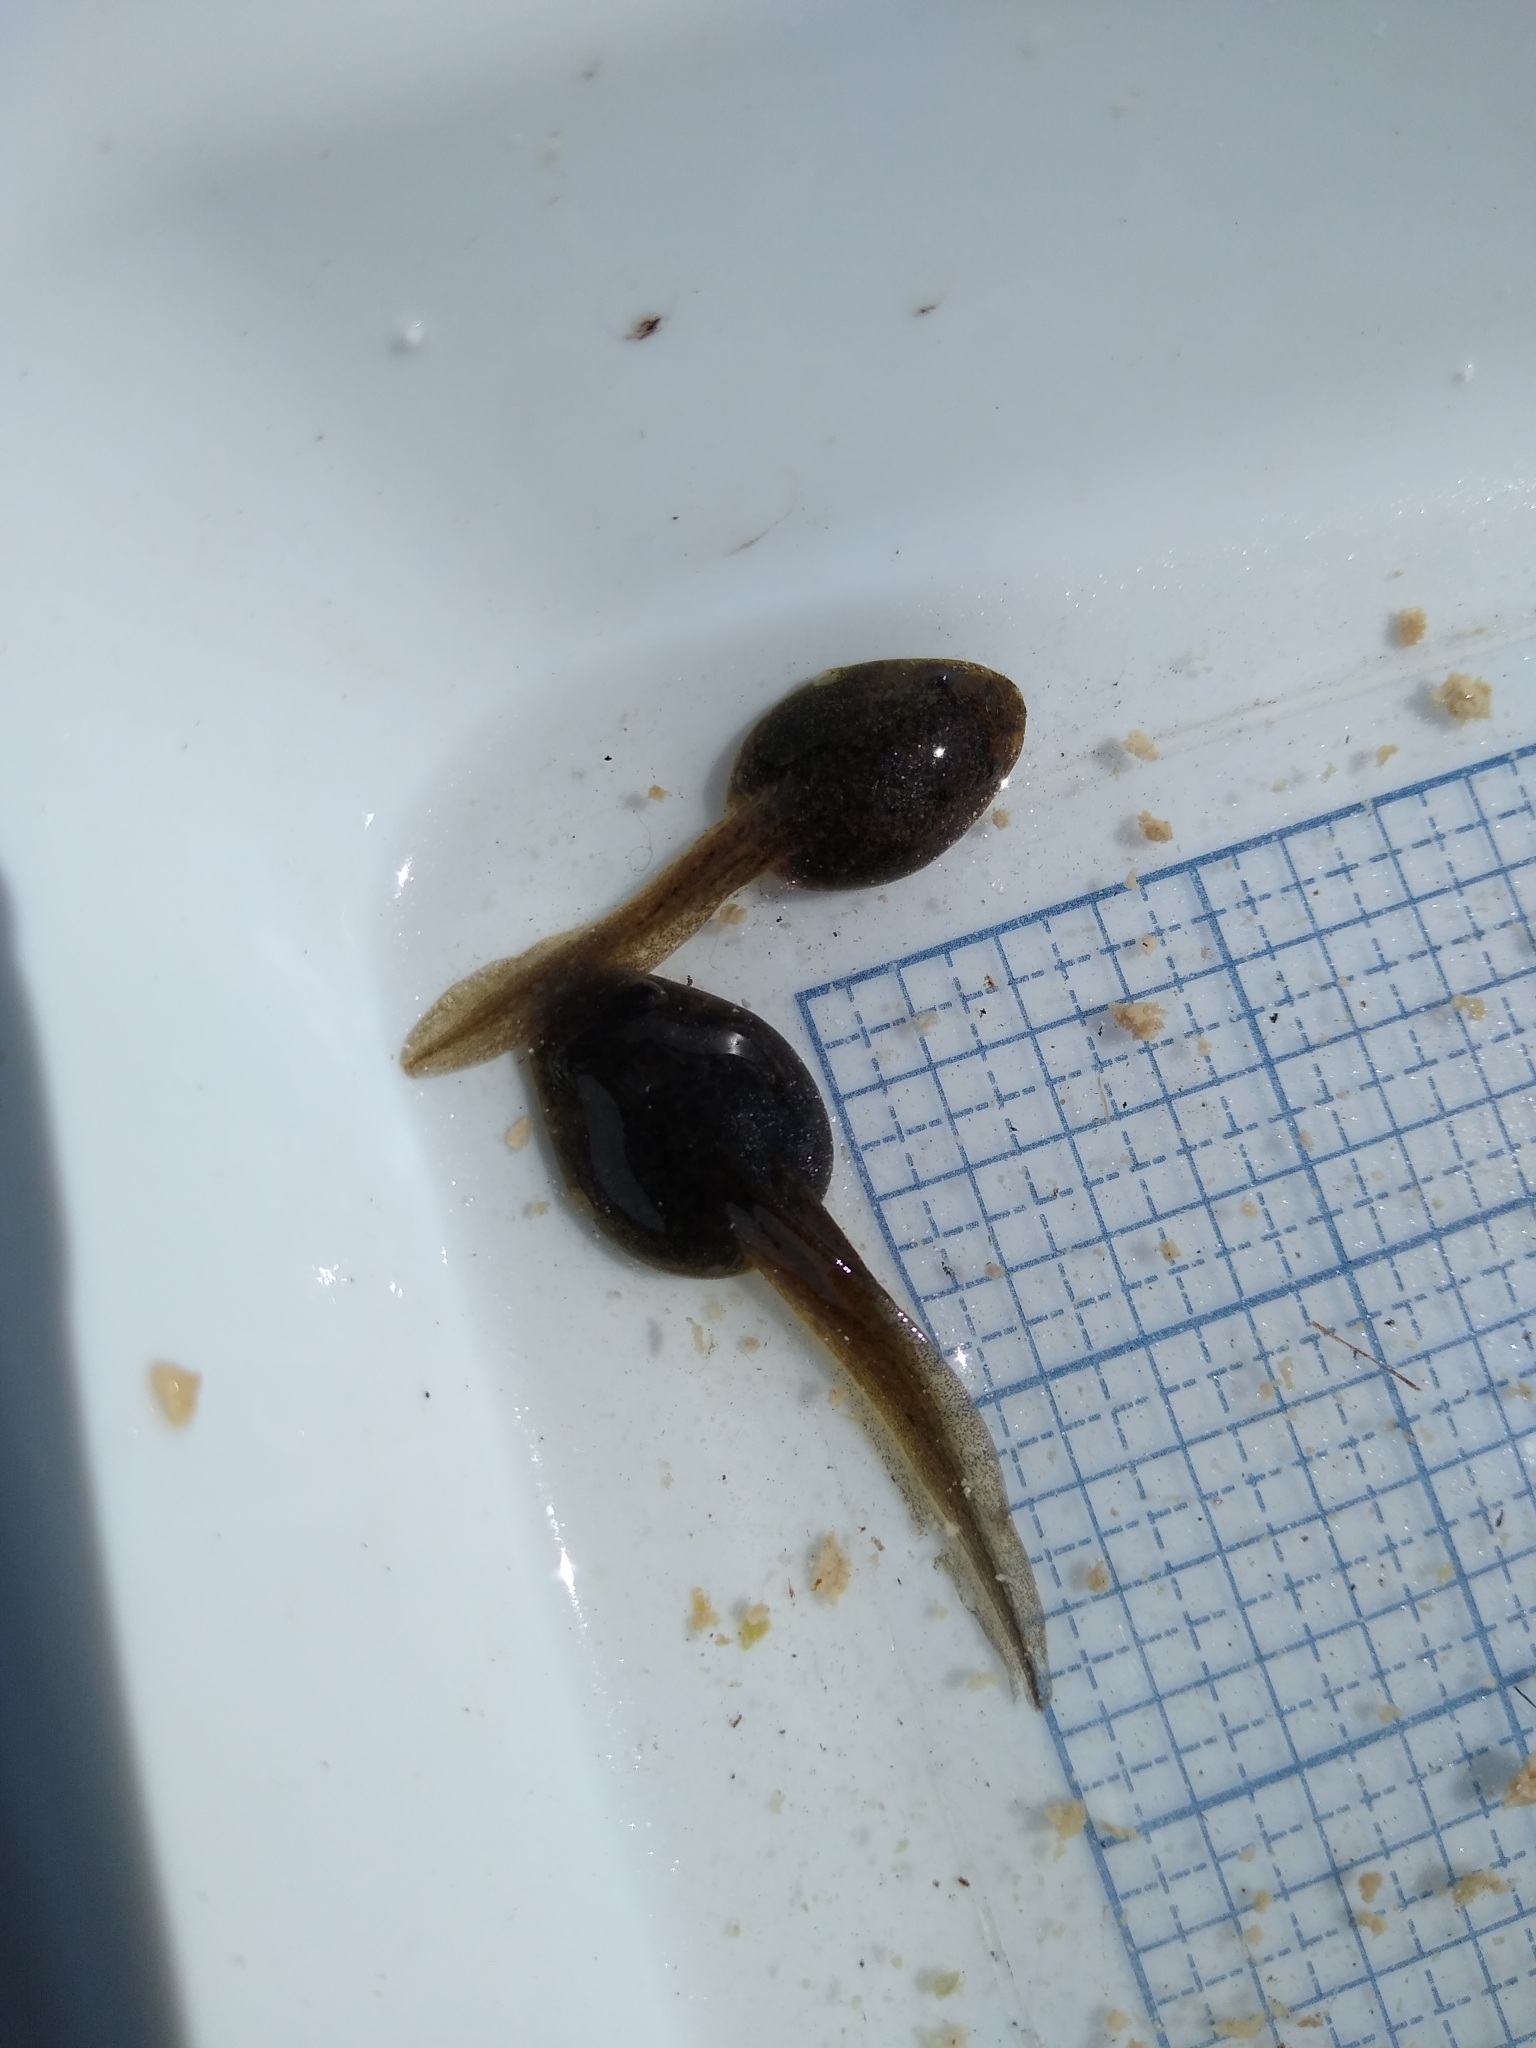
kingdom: Animalia
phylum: Chordata
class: Amphibia
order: Anura
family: Ranidae
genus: Lithobates
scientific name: Lithobates clamitans
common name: Green frog
